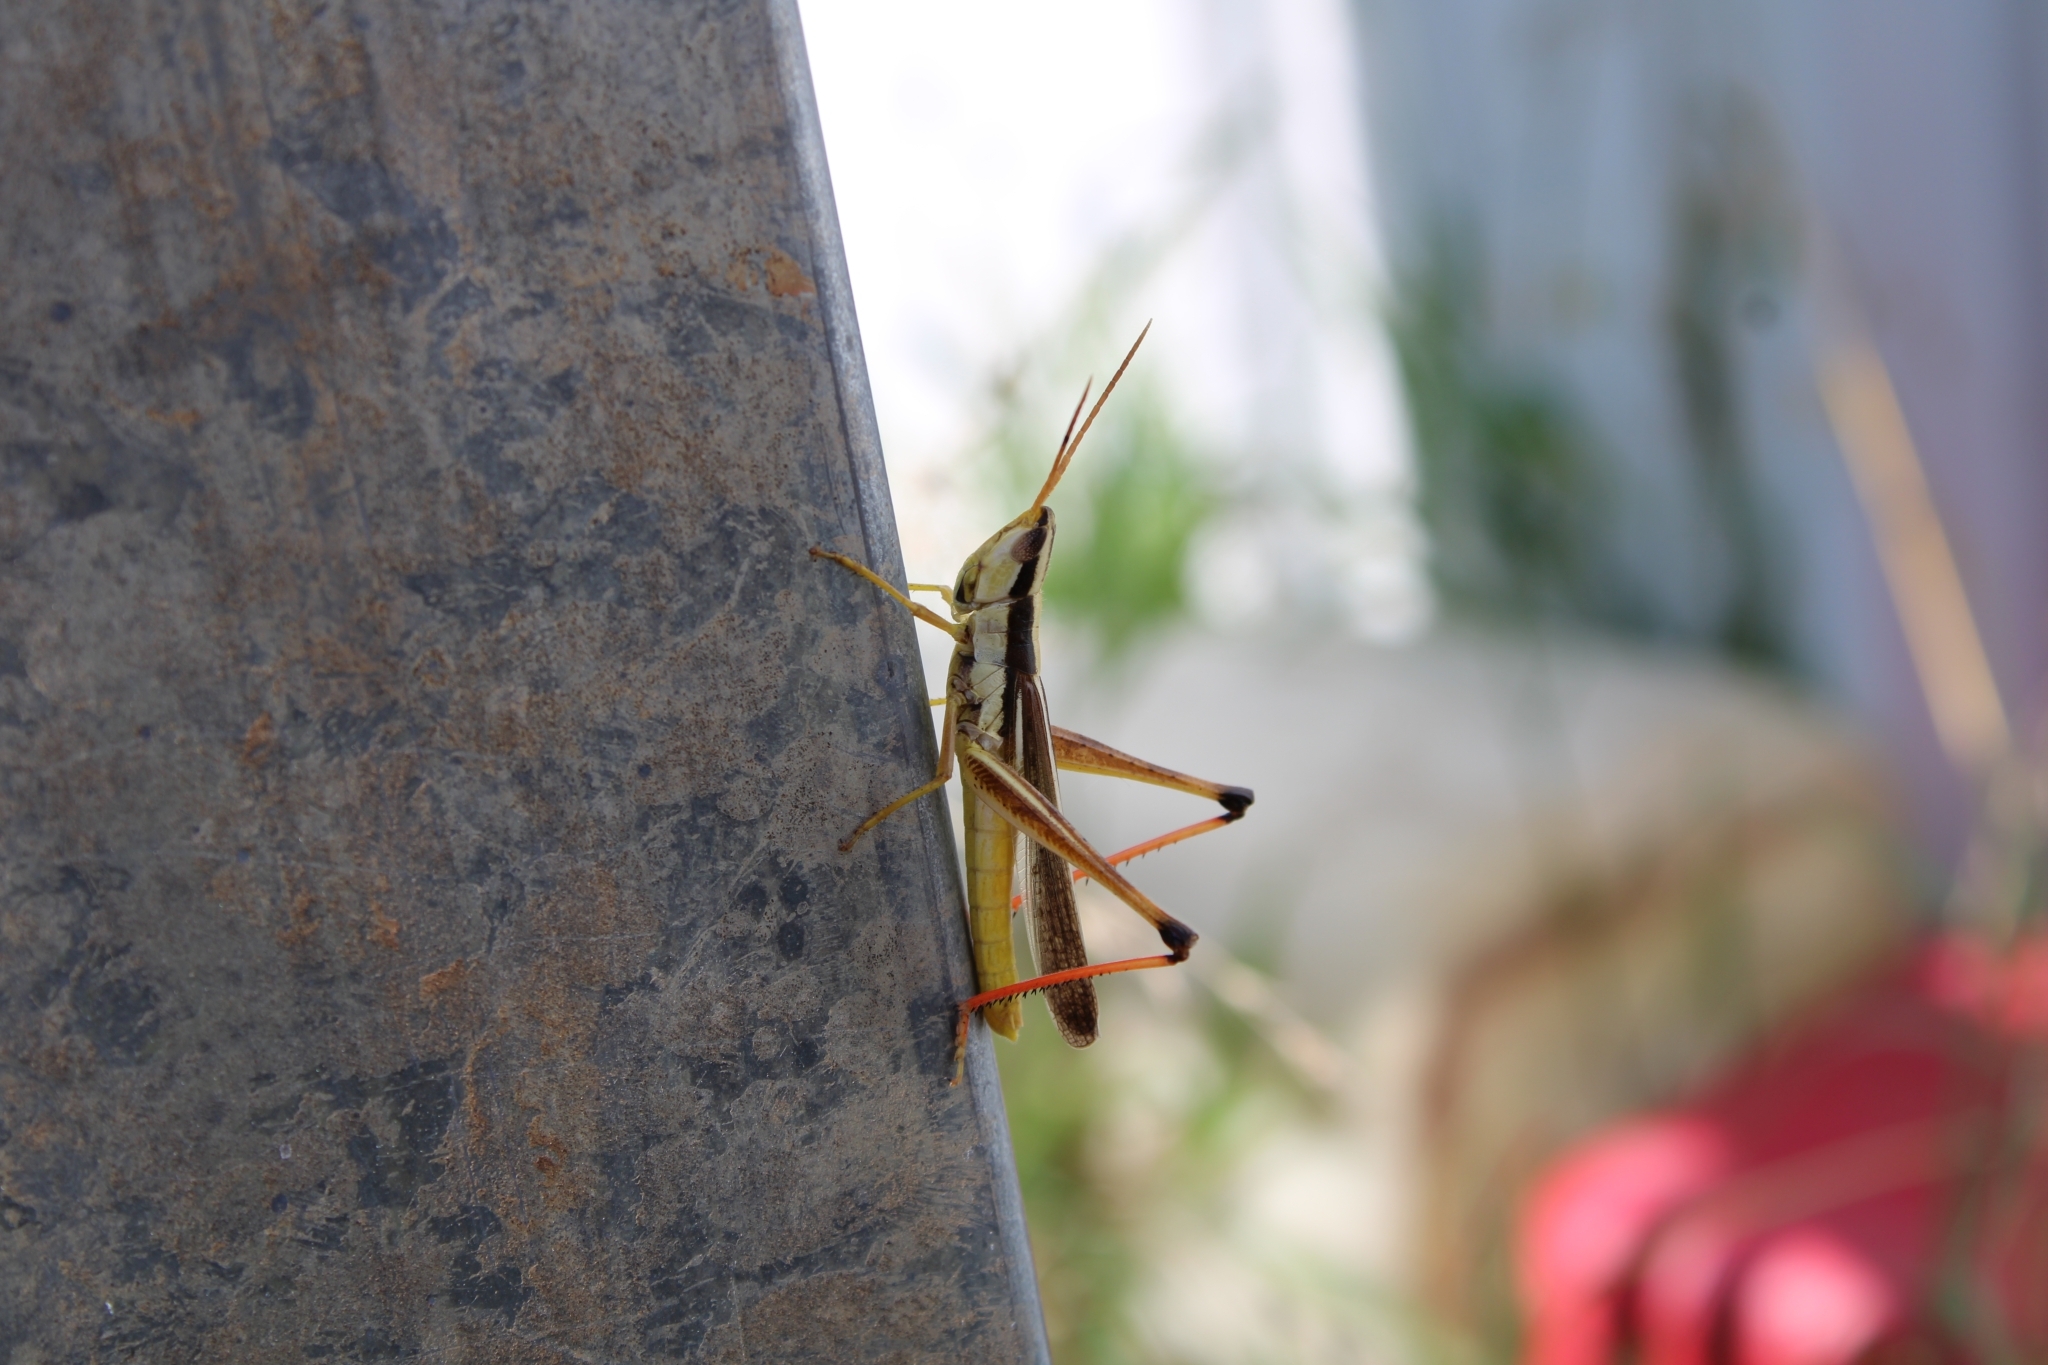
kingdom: Animalia
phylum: Arthropoda
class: Insecta
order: Orthoptera
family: Acrididae
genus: Mermiria
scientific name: Mermiria bivittata
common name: Two-striped mermiria grasshopper
